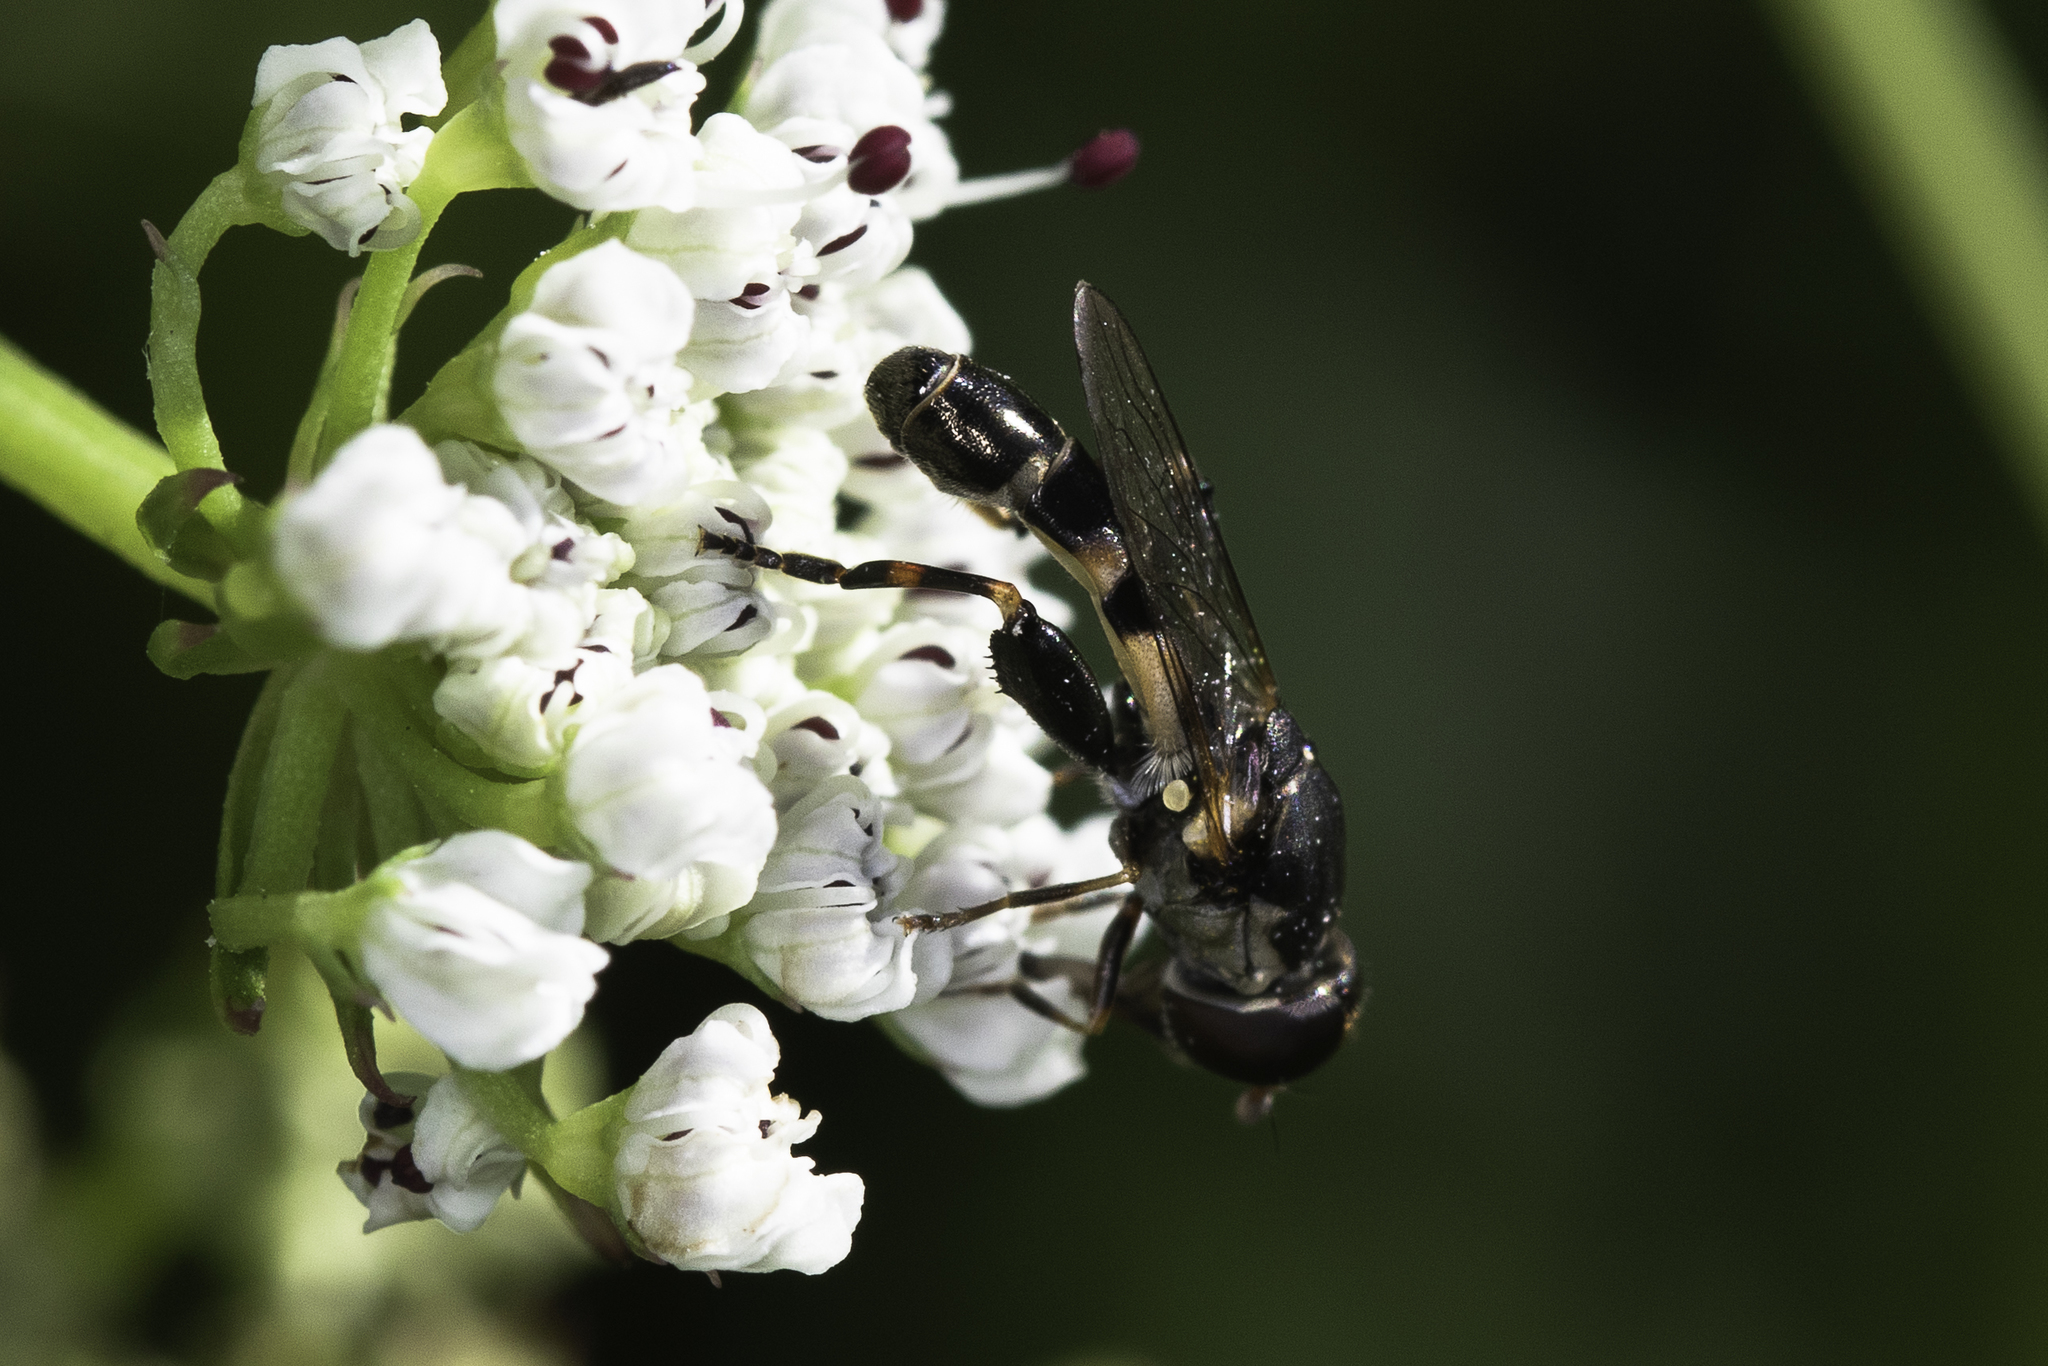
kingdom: Animalia
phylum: Arthropoda
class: Insecta
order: Diptera
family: Syrphidae
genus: Syritta
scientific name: Syritta pipiens
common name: Hover fly
